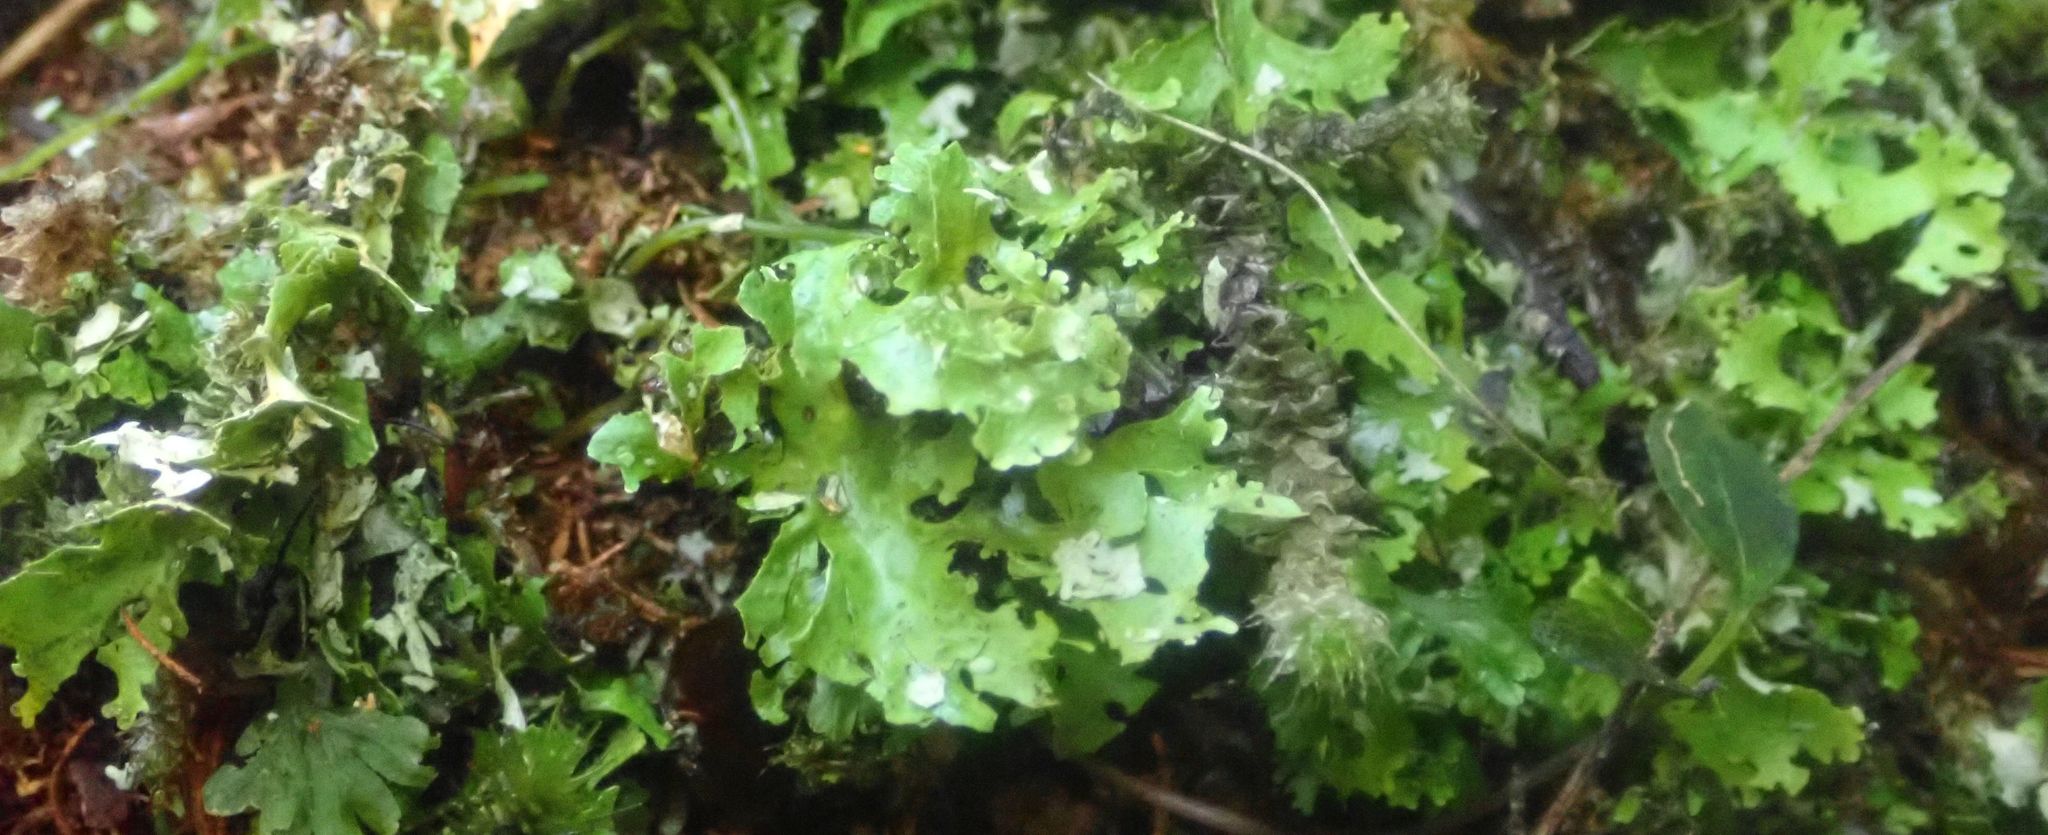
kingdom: Fungi
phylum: Ascomycota
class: Lecanoromycetes
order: Peltigerales
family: Lobariaceae
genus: Sticta
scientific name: Sticta filix
